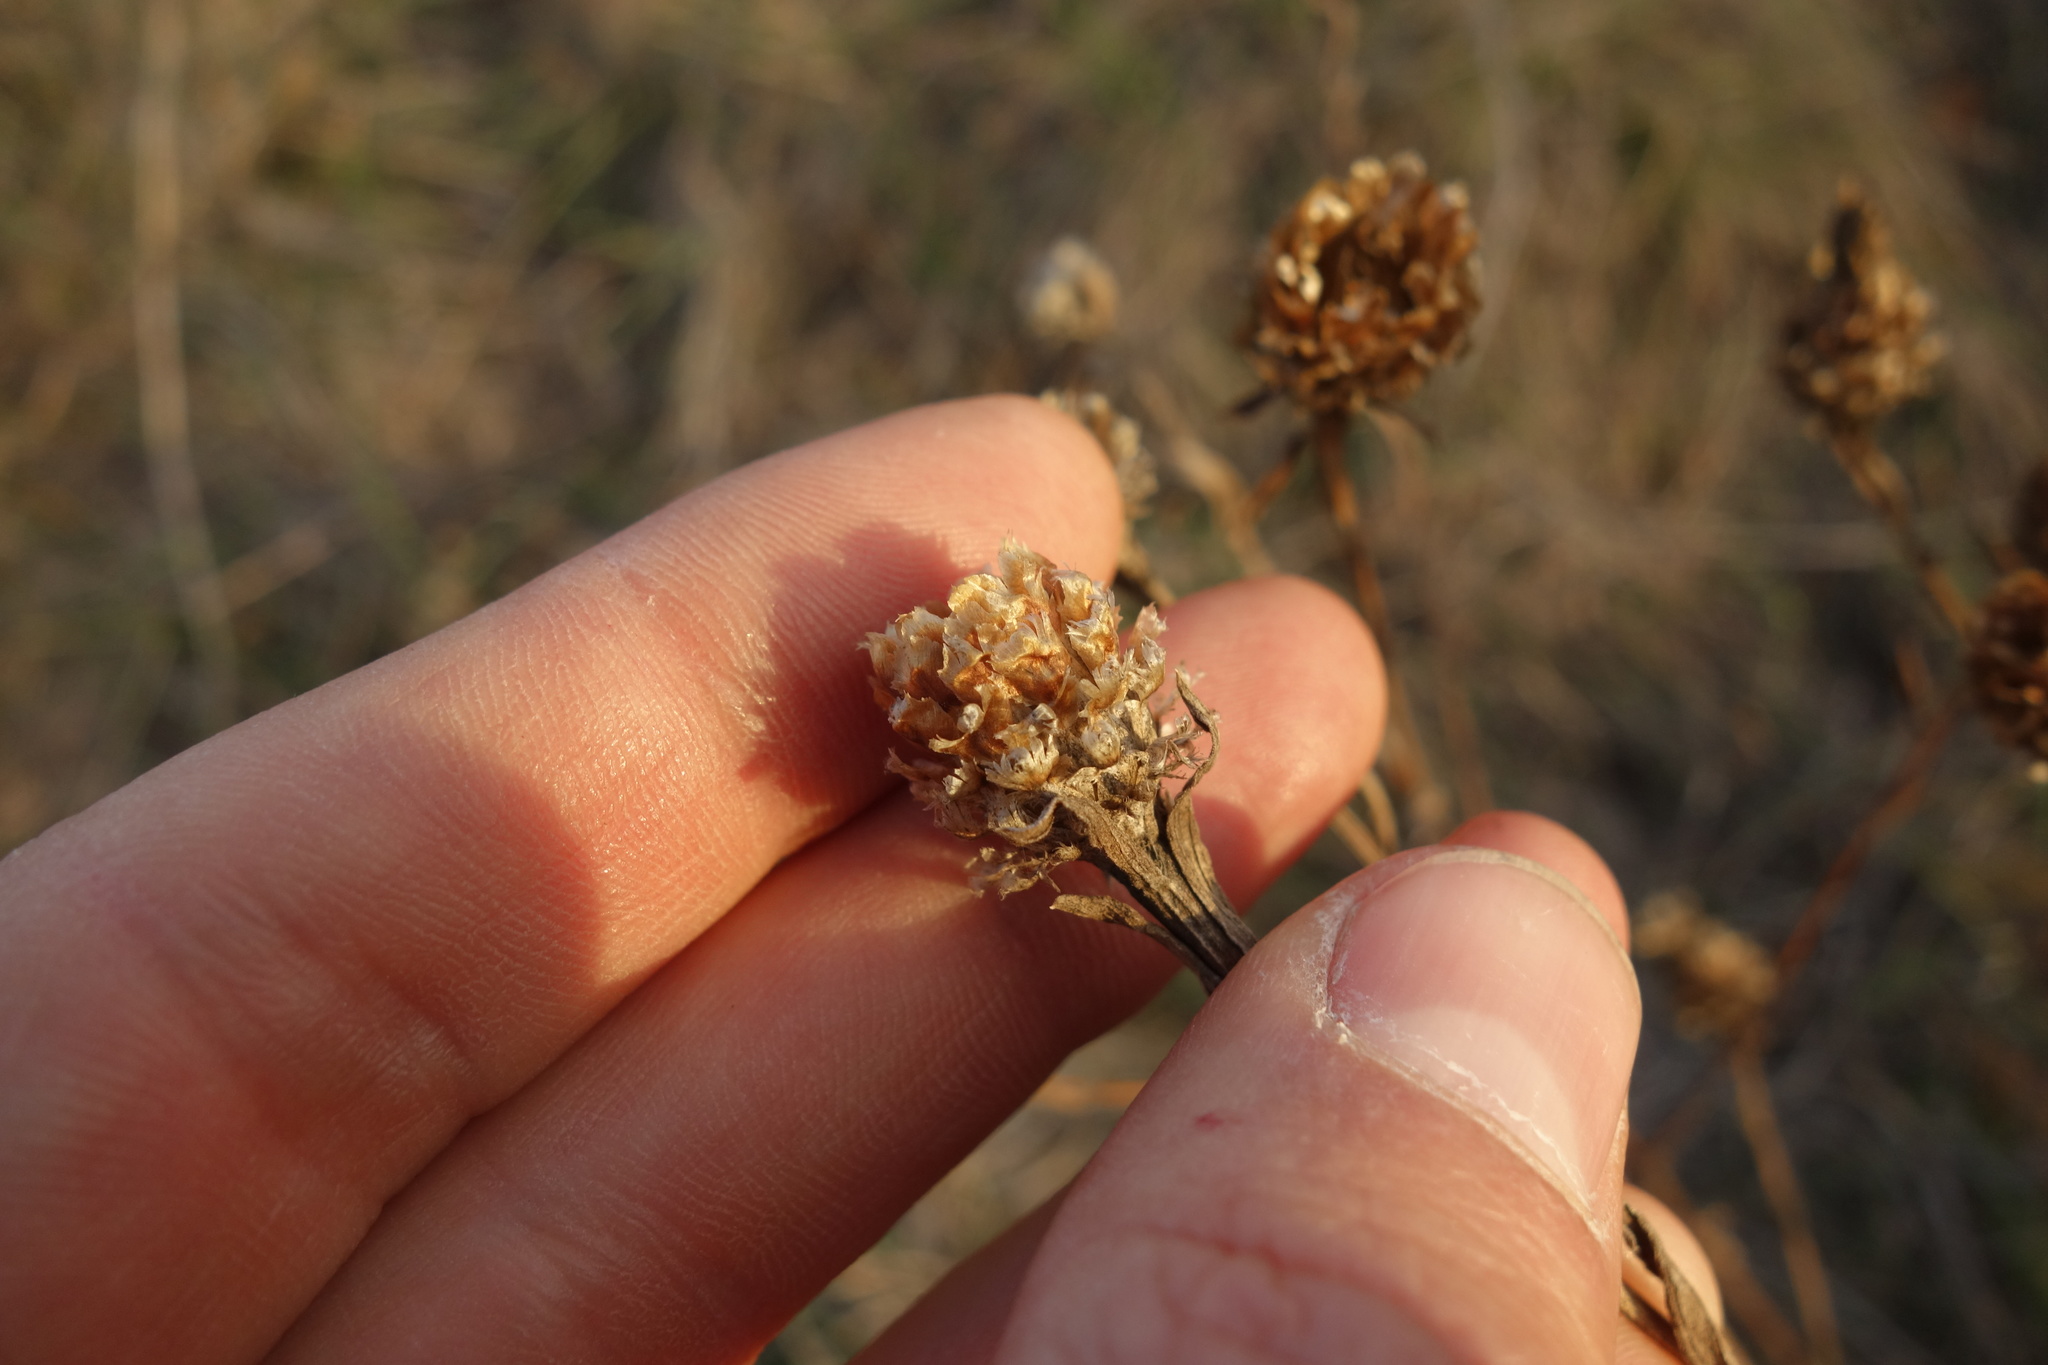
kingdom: Plantae
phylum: Tracheophyta
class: Magnoliopsida
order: Asterales
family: Asteraceae
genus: Centaurea
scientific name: Centaurea jacea
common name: Brown knapweed
